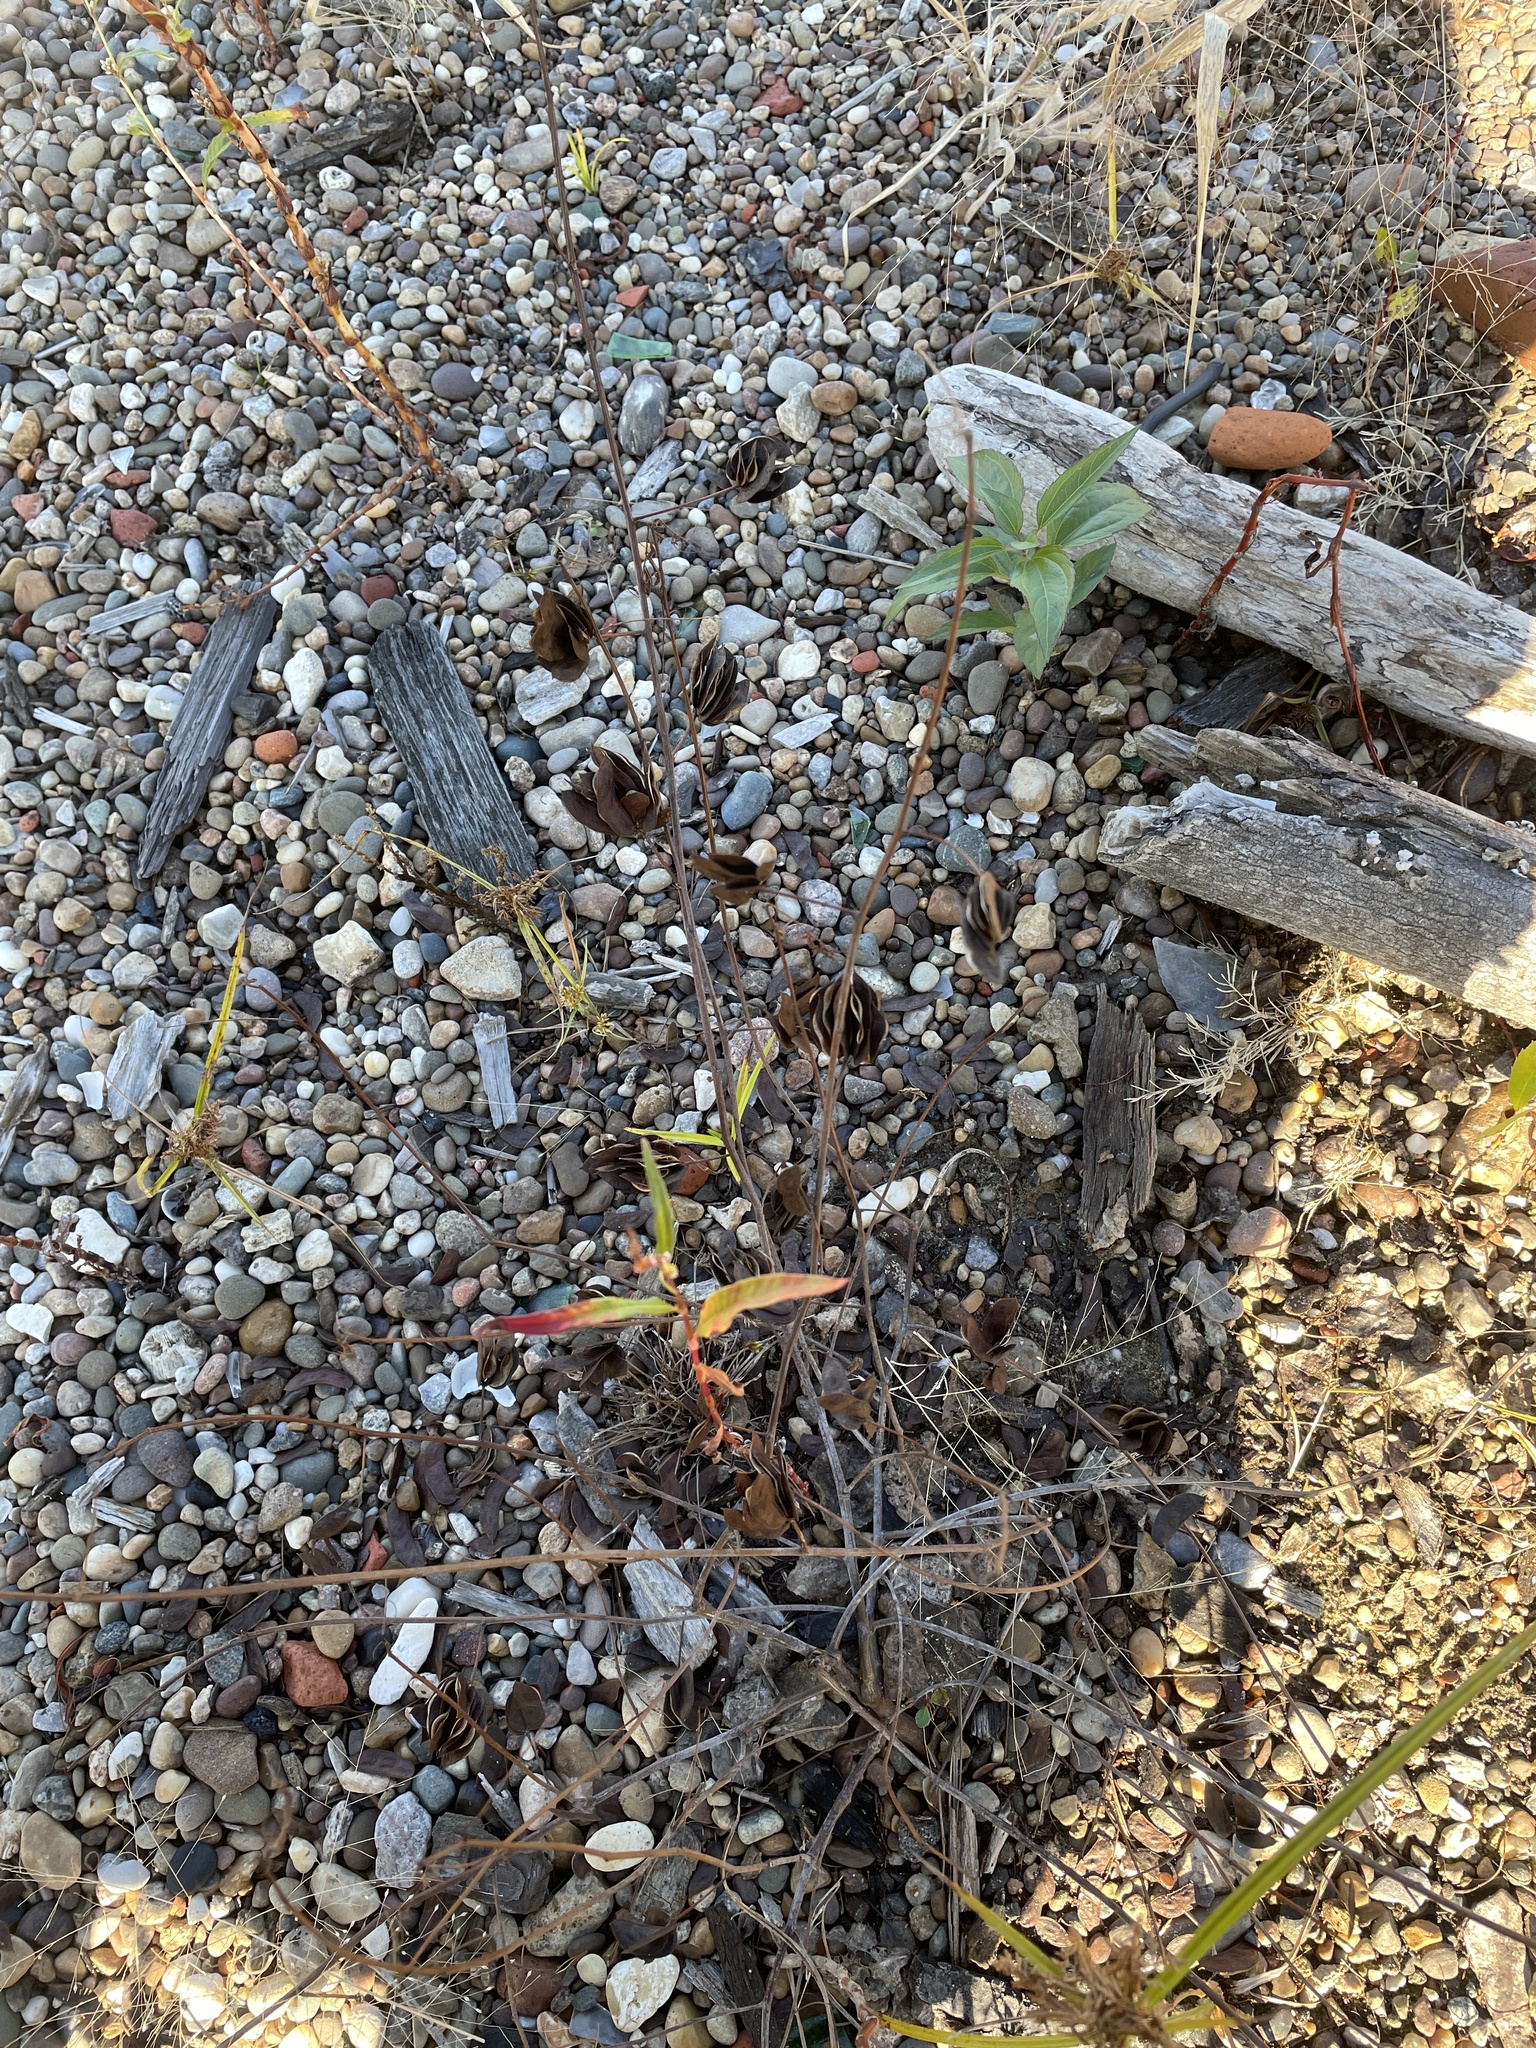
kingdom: Plantae
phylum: Tracheophyta
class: Magnoliopsida
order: Fabales
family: Fabaceae
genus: Desmanthus
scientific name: Desmanthus illinoensis
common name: Illinois bundle-flower
